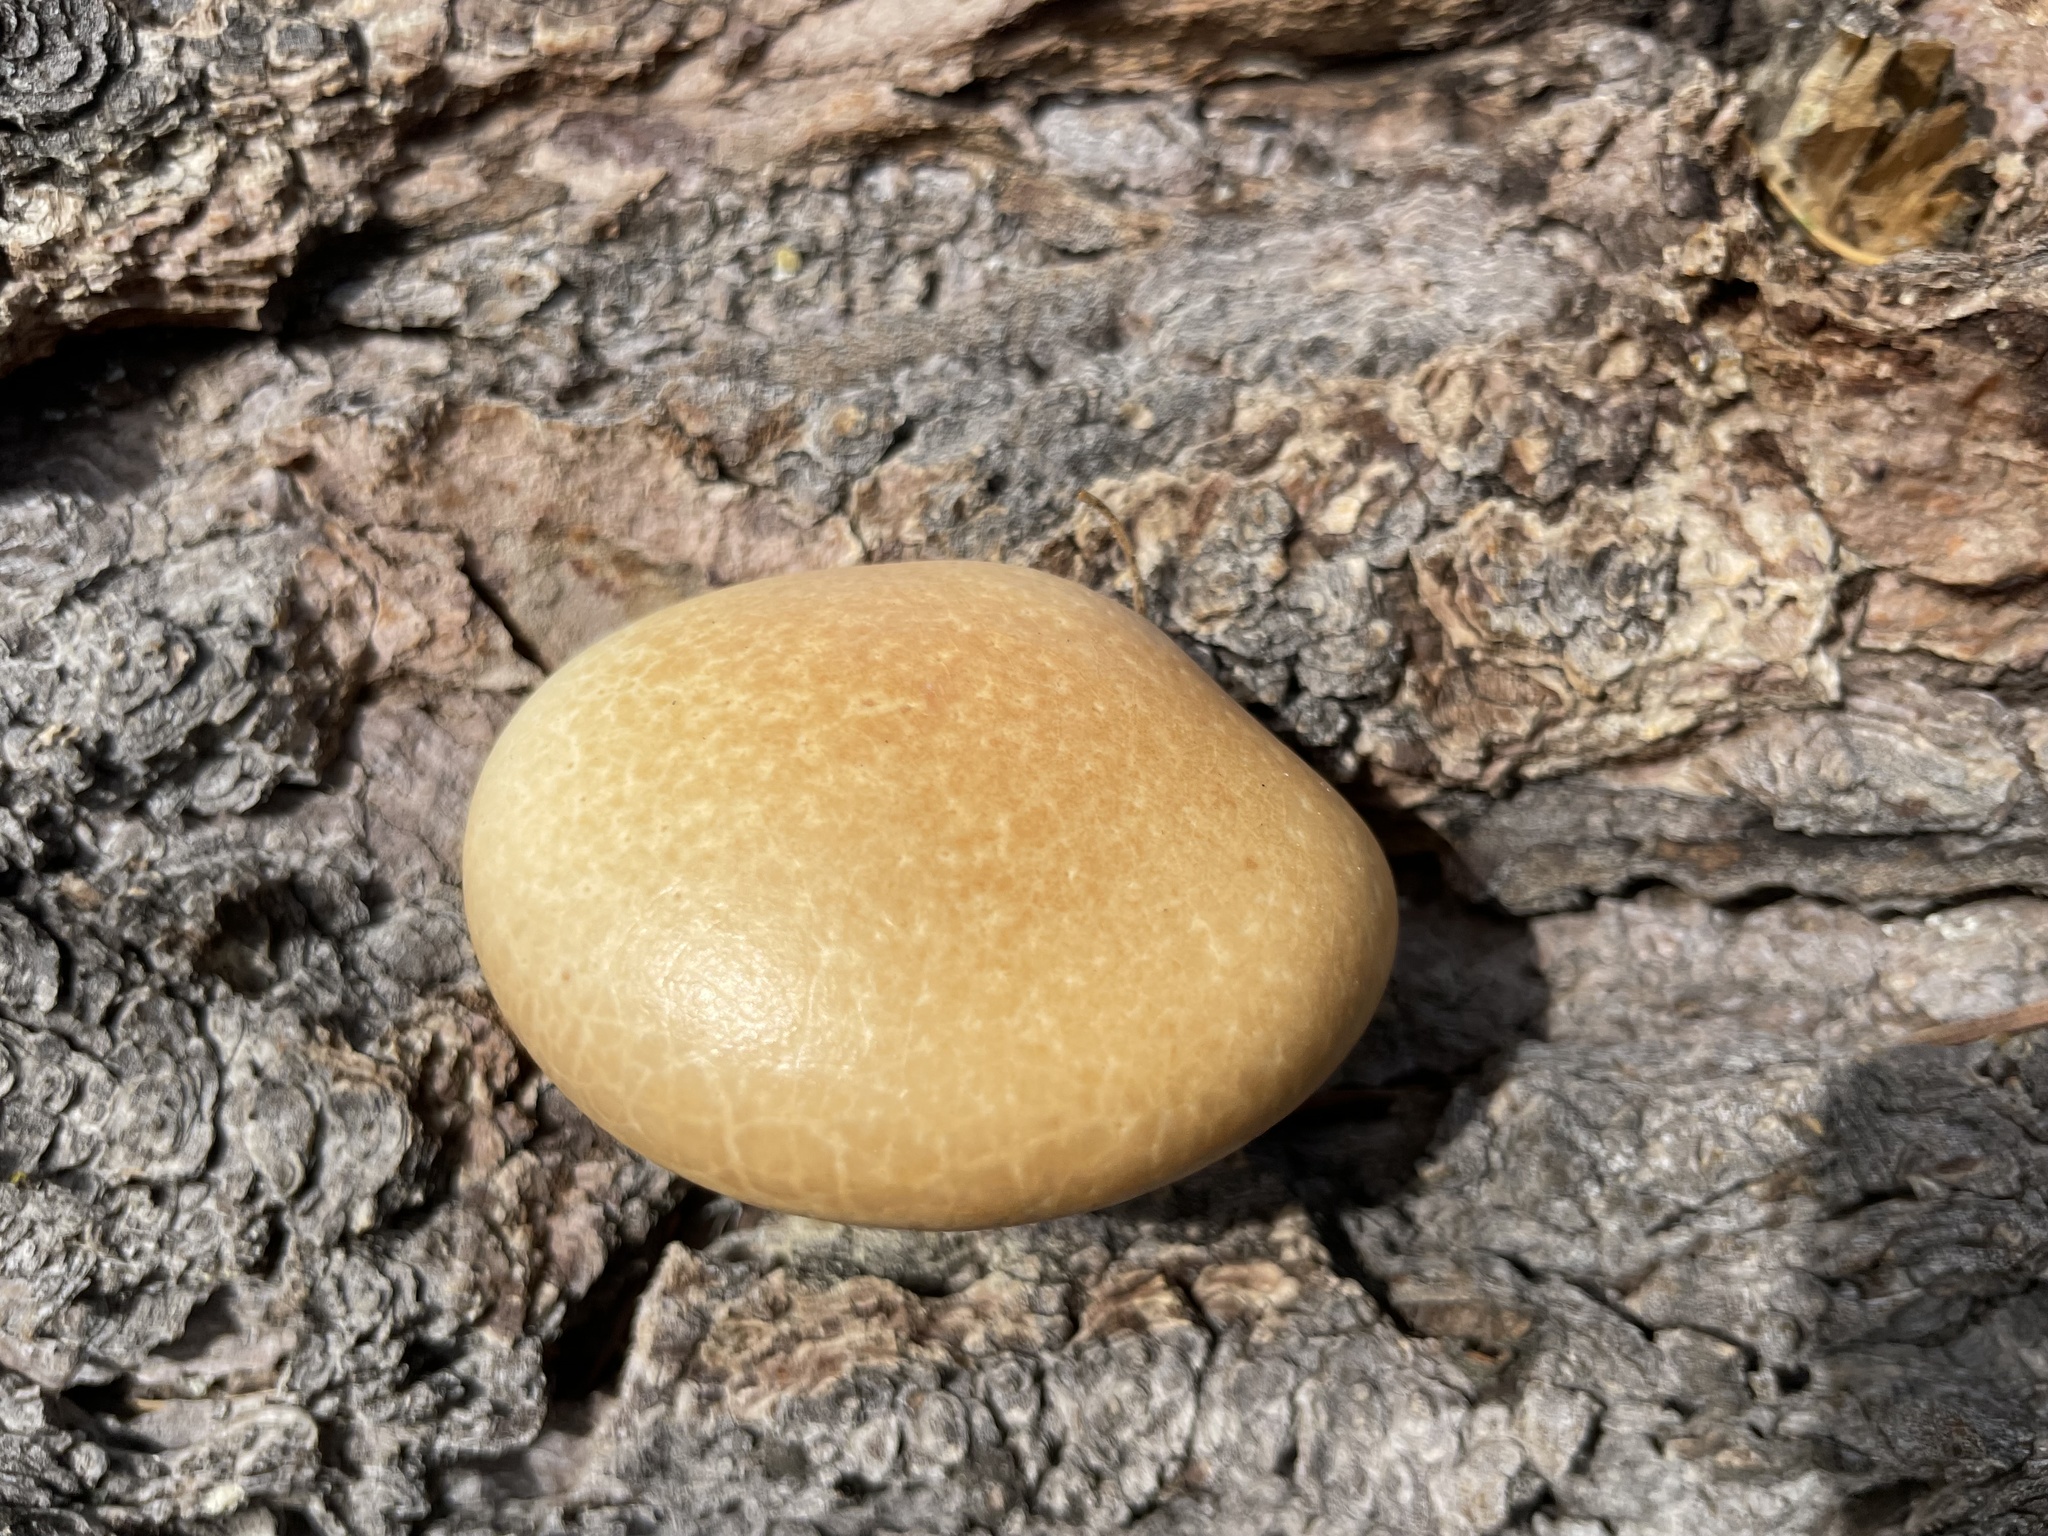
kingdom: Fungi
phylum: Basidiomycota
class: Agaricomycetes
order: Polyporales
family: Polyporaceae
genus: Cryptoporus
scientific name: Cryptoporus volvatus
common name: Veiled polypore
